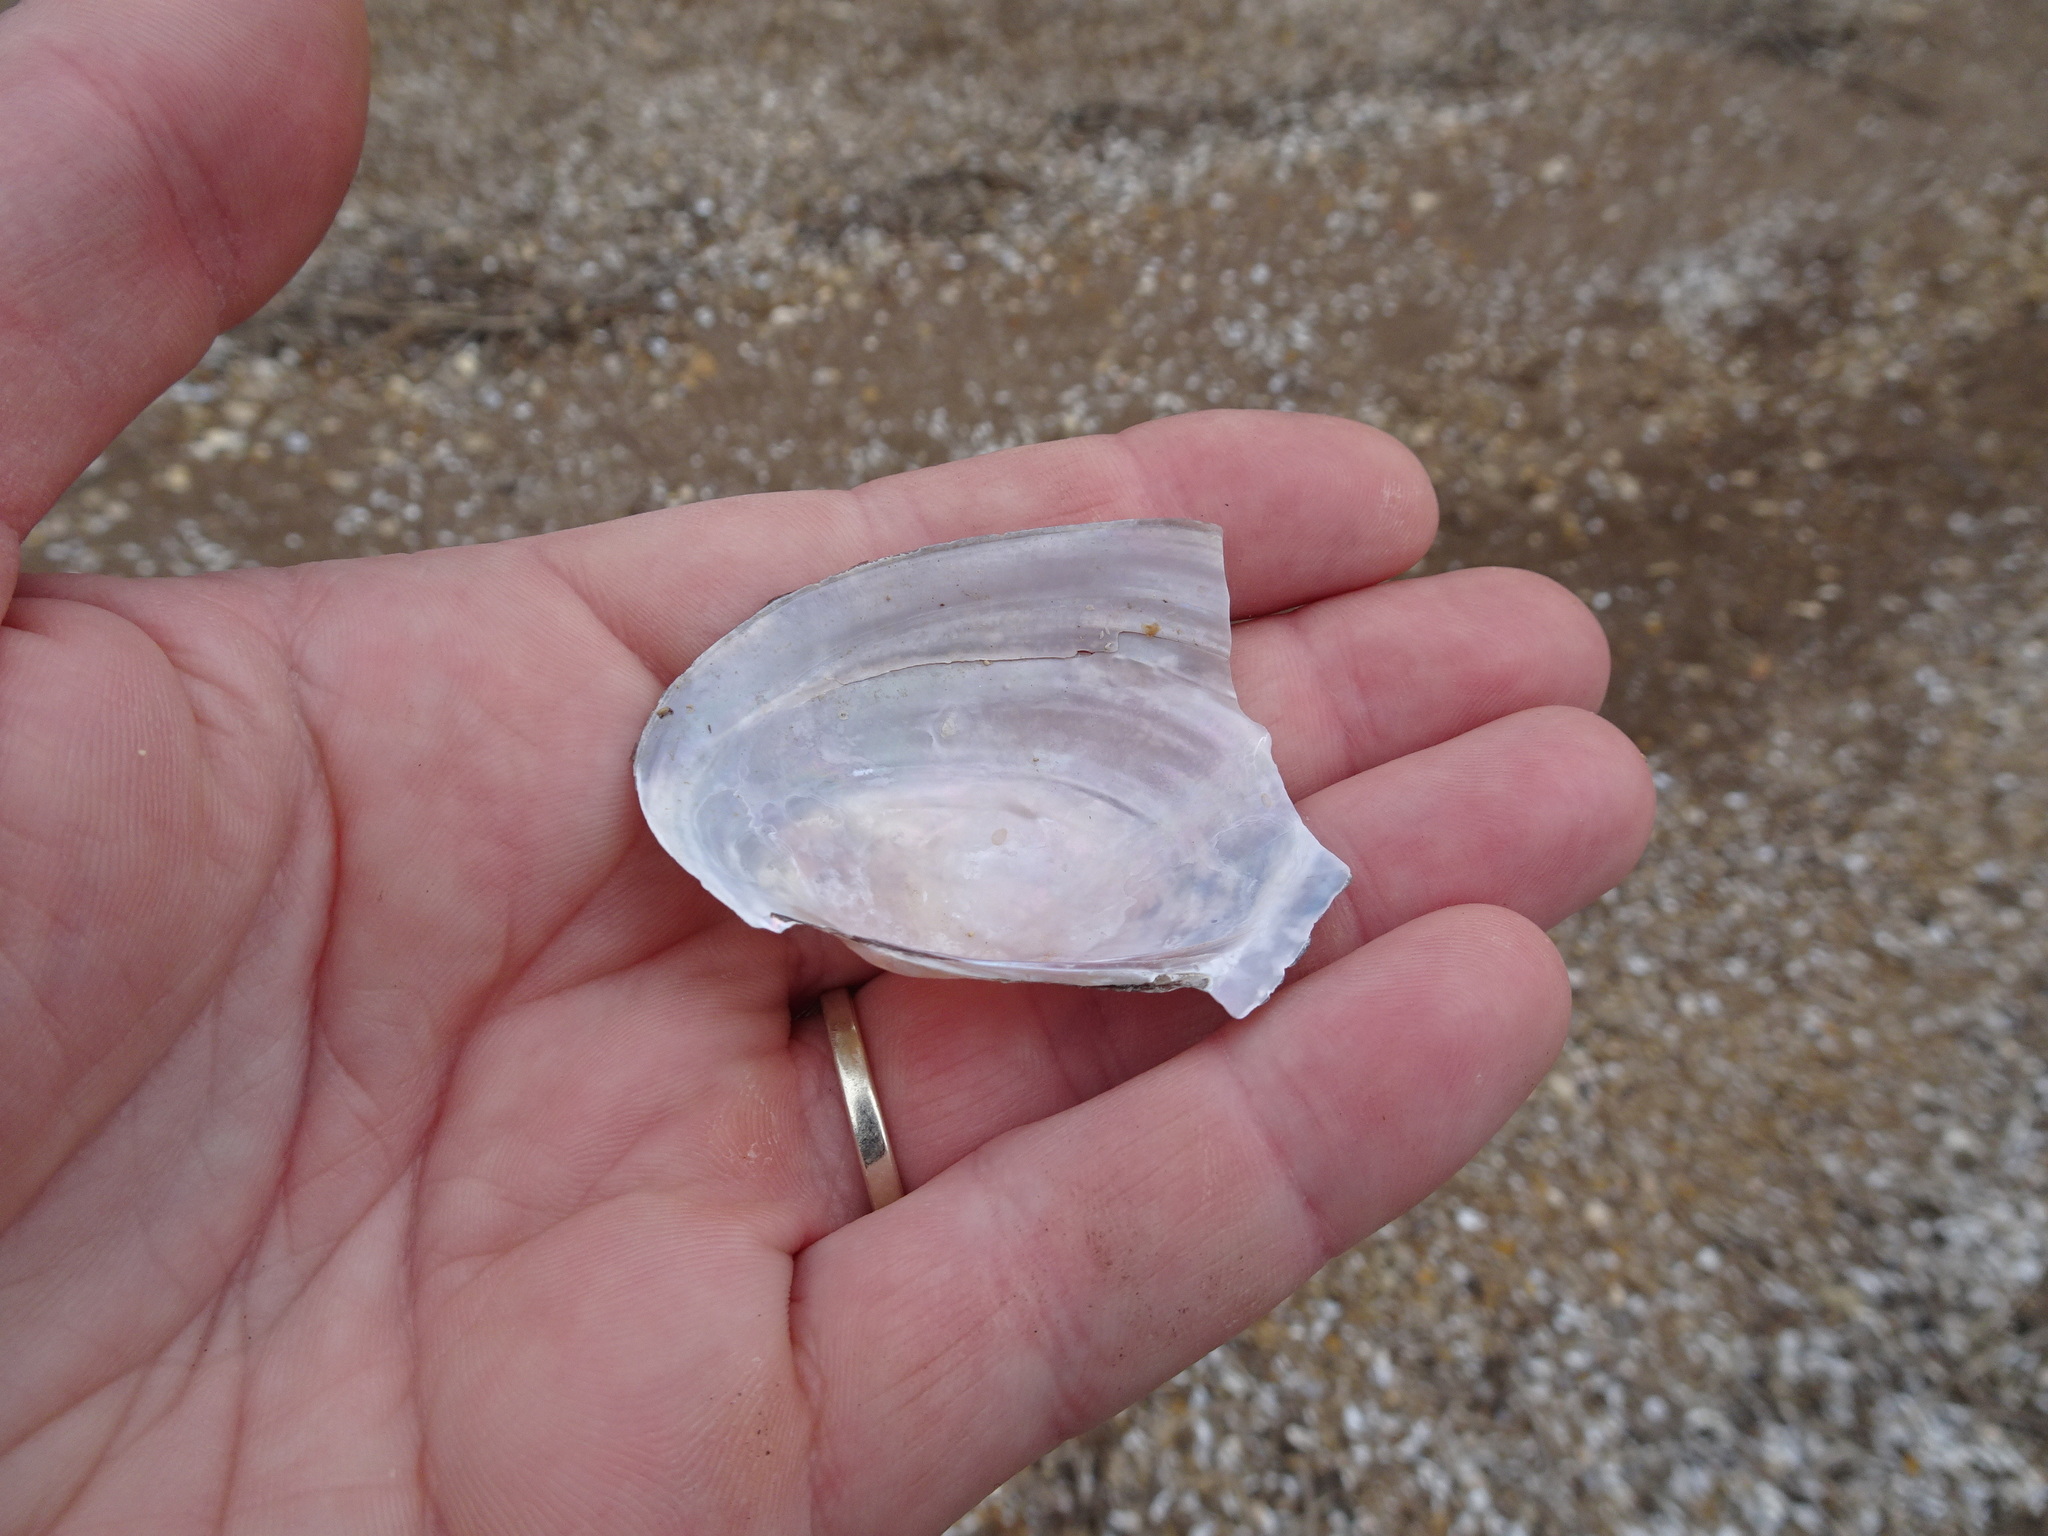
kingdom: Animalia
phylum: Mollusca
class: Bivalvia
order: Unionida
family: Unionidae
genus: Potamilus
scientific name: Potamilus fragilis
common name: Fragile papershell
